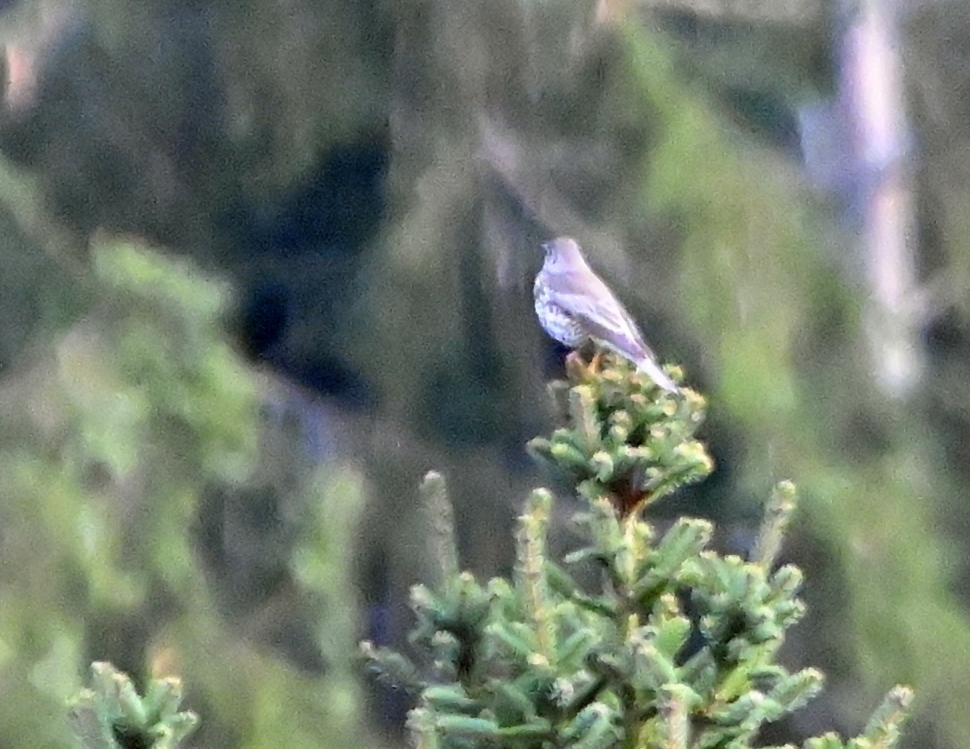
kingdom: Animalia
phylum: Chordata
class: Aves
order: Passeriformes
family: Turdidae
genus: Turdus
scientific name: Turdus viscivorus
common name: Mistle thrush
